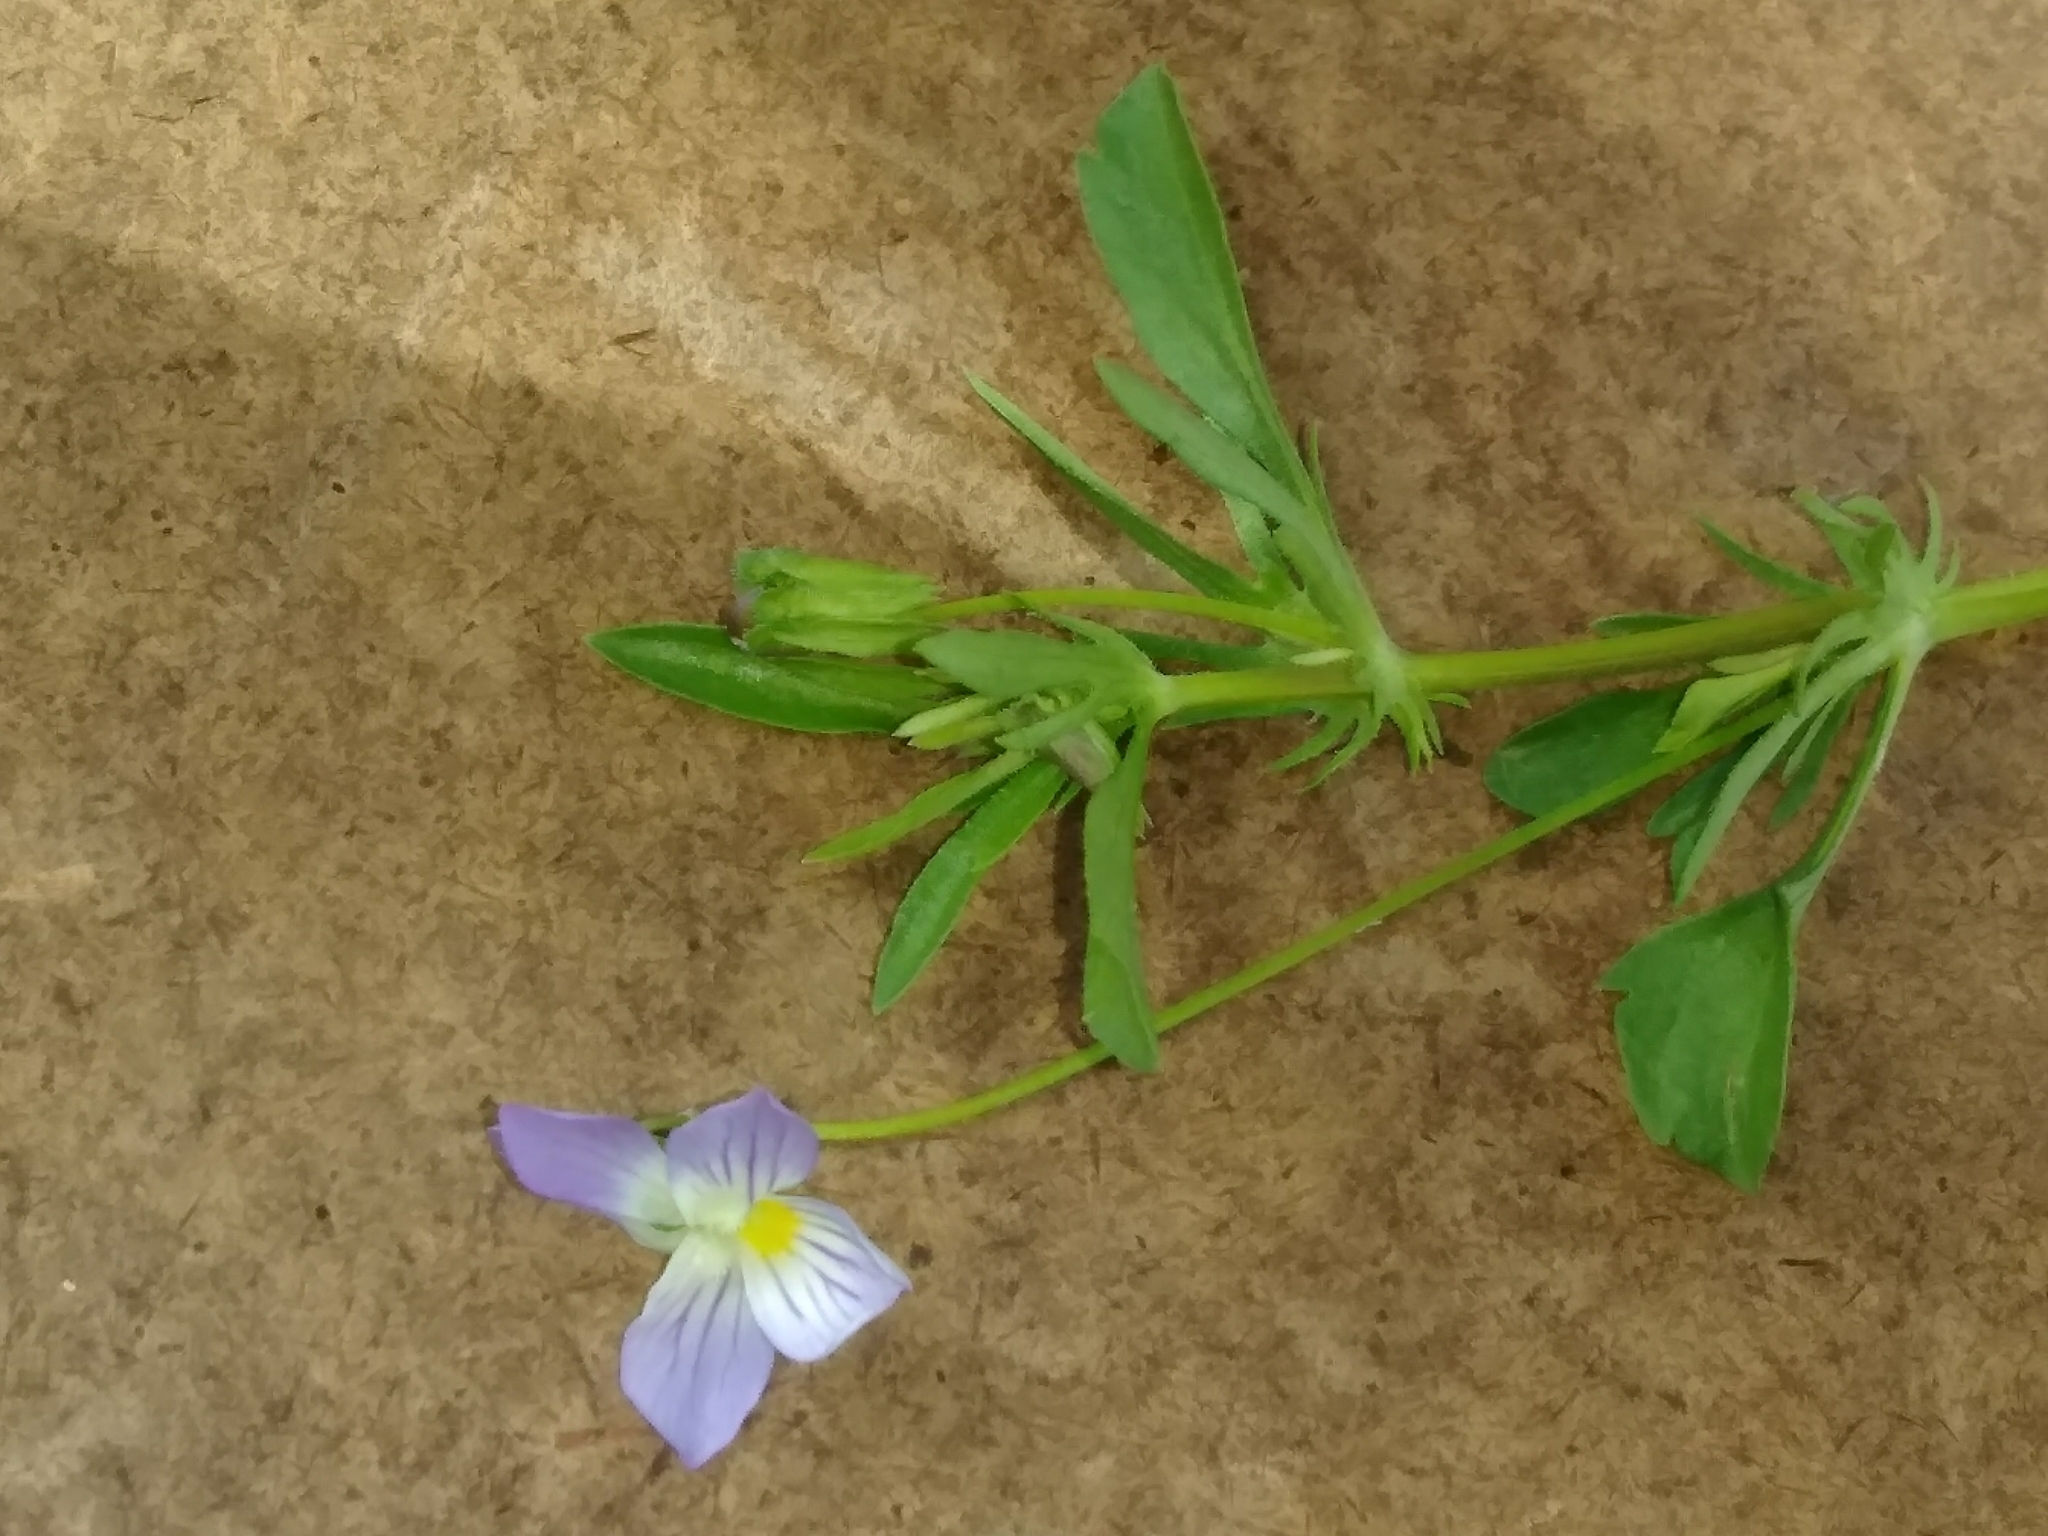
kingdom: Plantae
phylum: Tracheophyta
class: Magnoliopsida
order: Malpighiales
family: Violaceae
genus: Viola
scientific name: Viola rafinesquei
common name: American field pansy
